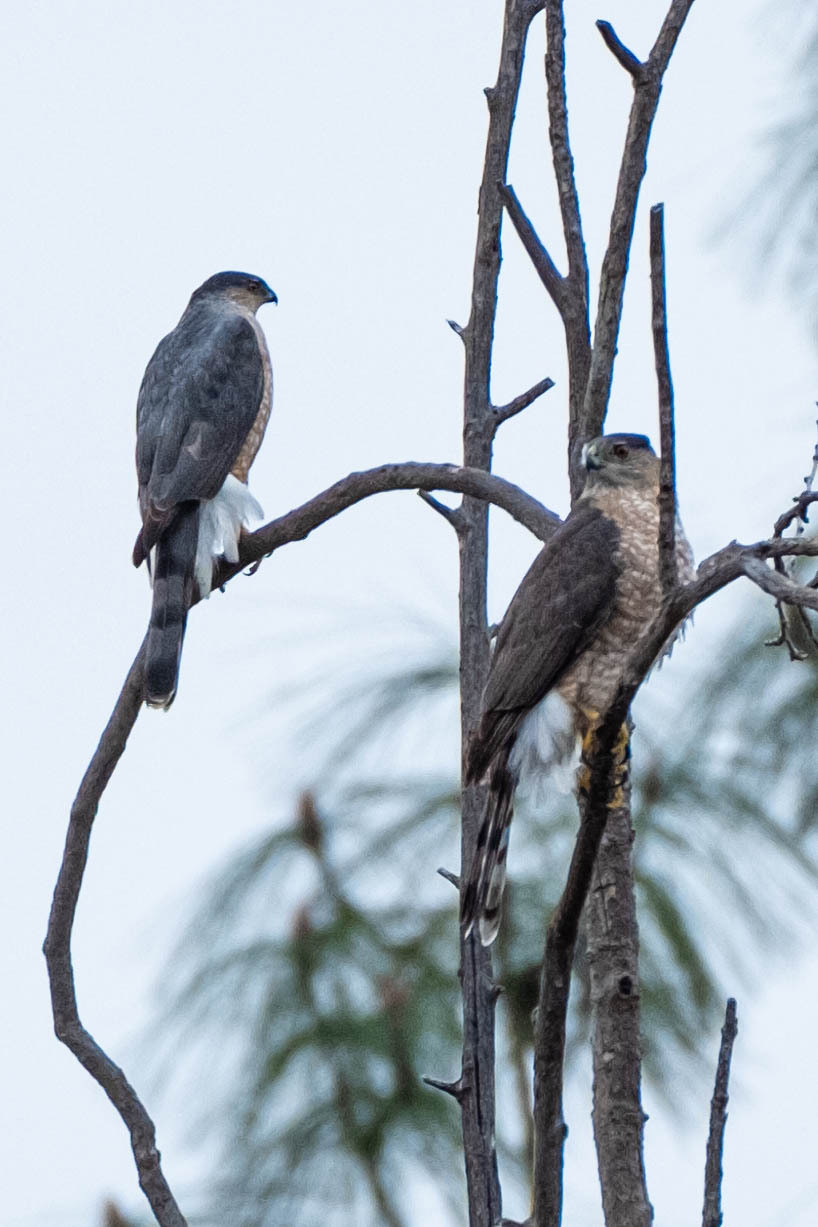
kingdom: Animalia
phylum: Chordata
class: Aves
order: Accipitriformes
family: Accipitridae
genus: Accipiter
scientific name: Accipiter cooperii
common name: Cooper's hawk
